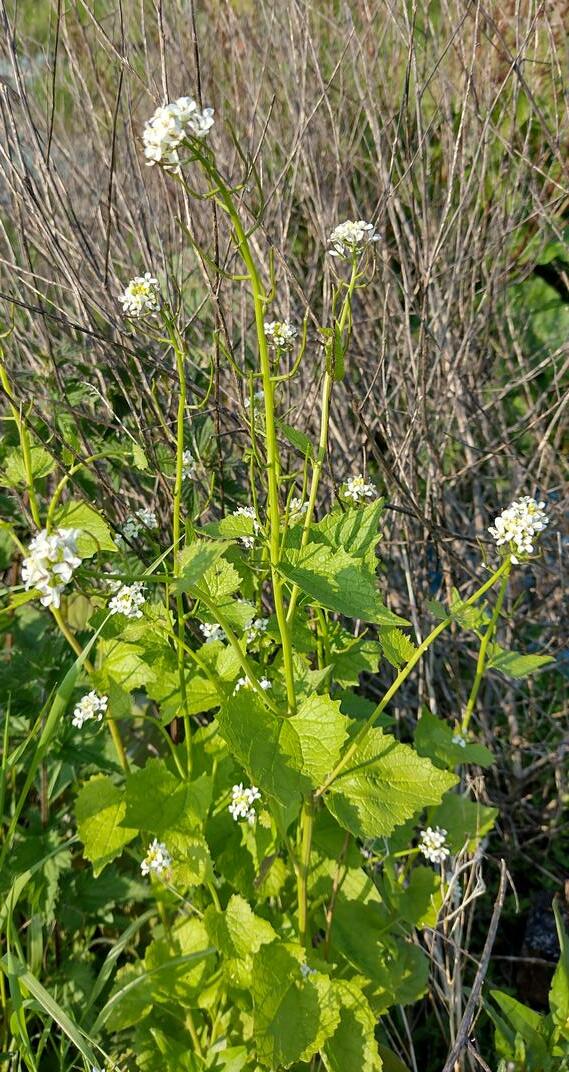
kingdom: Plantae
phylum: Tracheophyta
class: Magnoliopsida
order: Brassicales
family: Brassicaceae
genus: Alliaria
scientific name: Alliaria petiolata
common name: Garlic mustard
